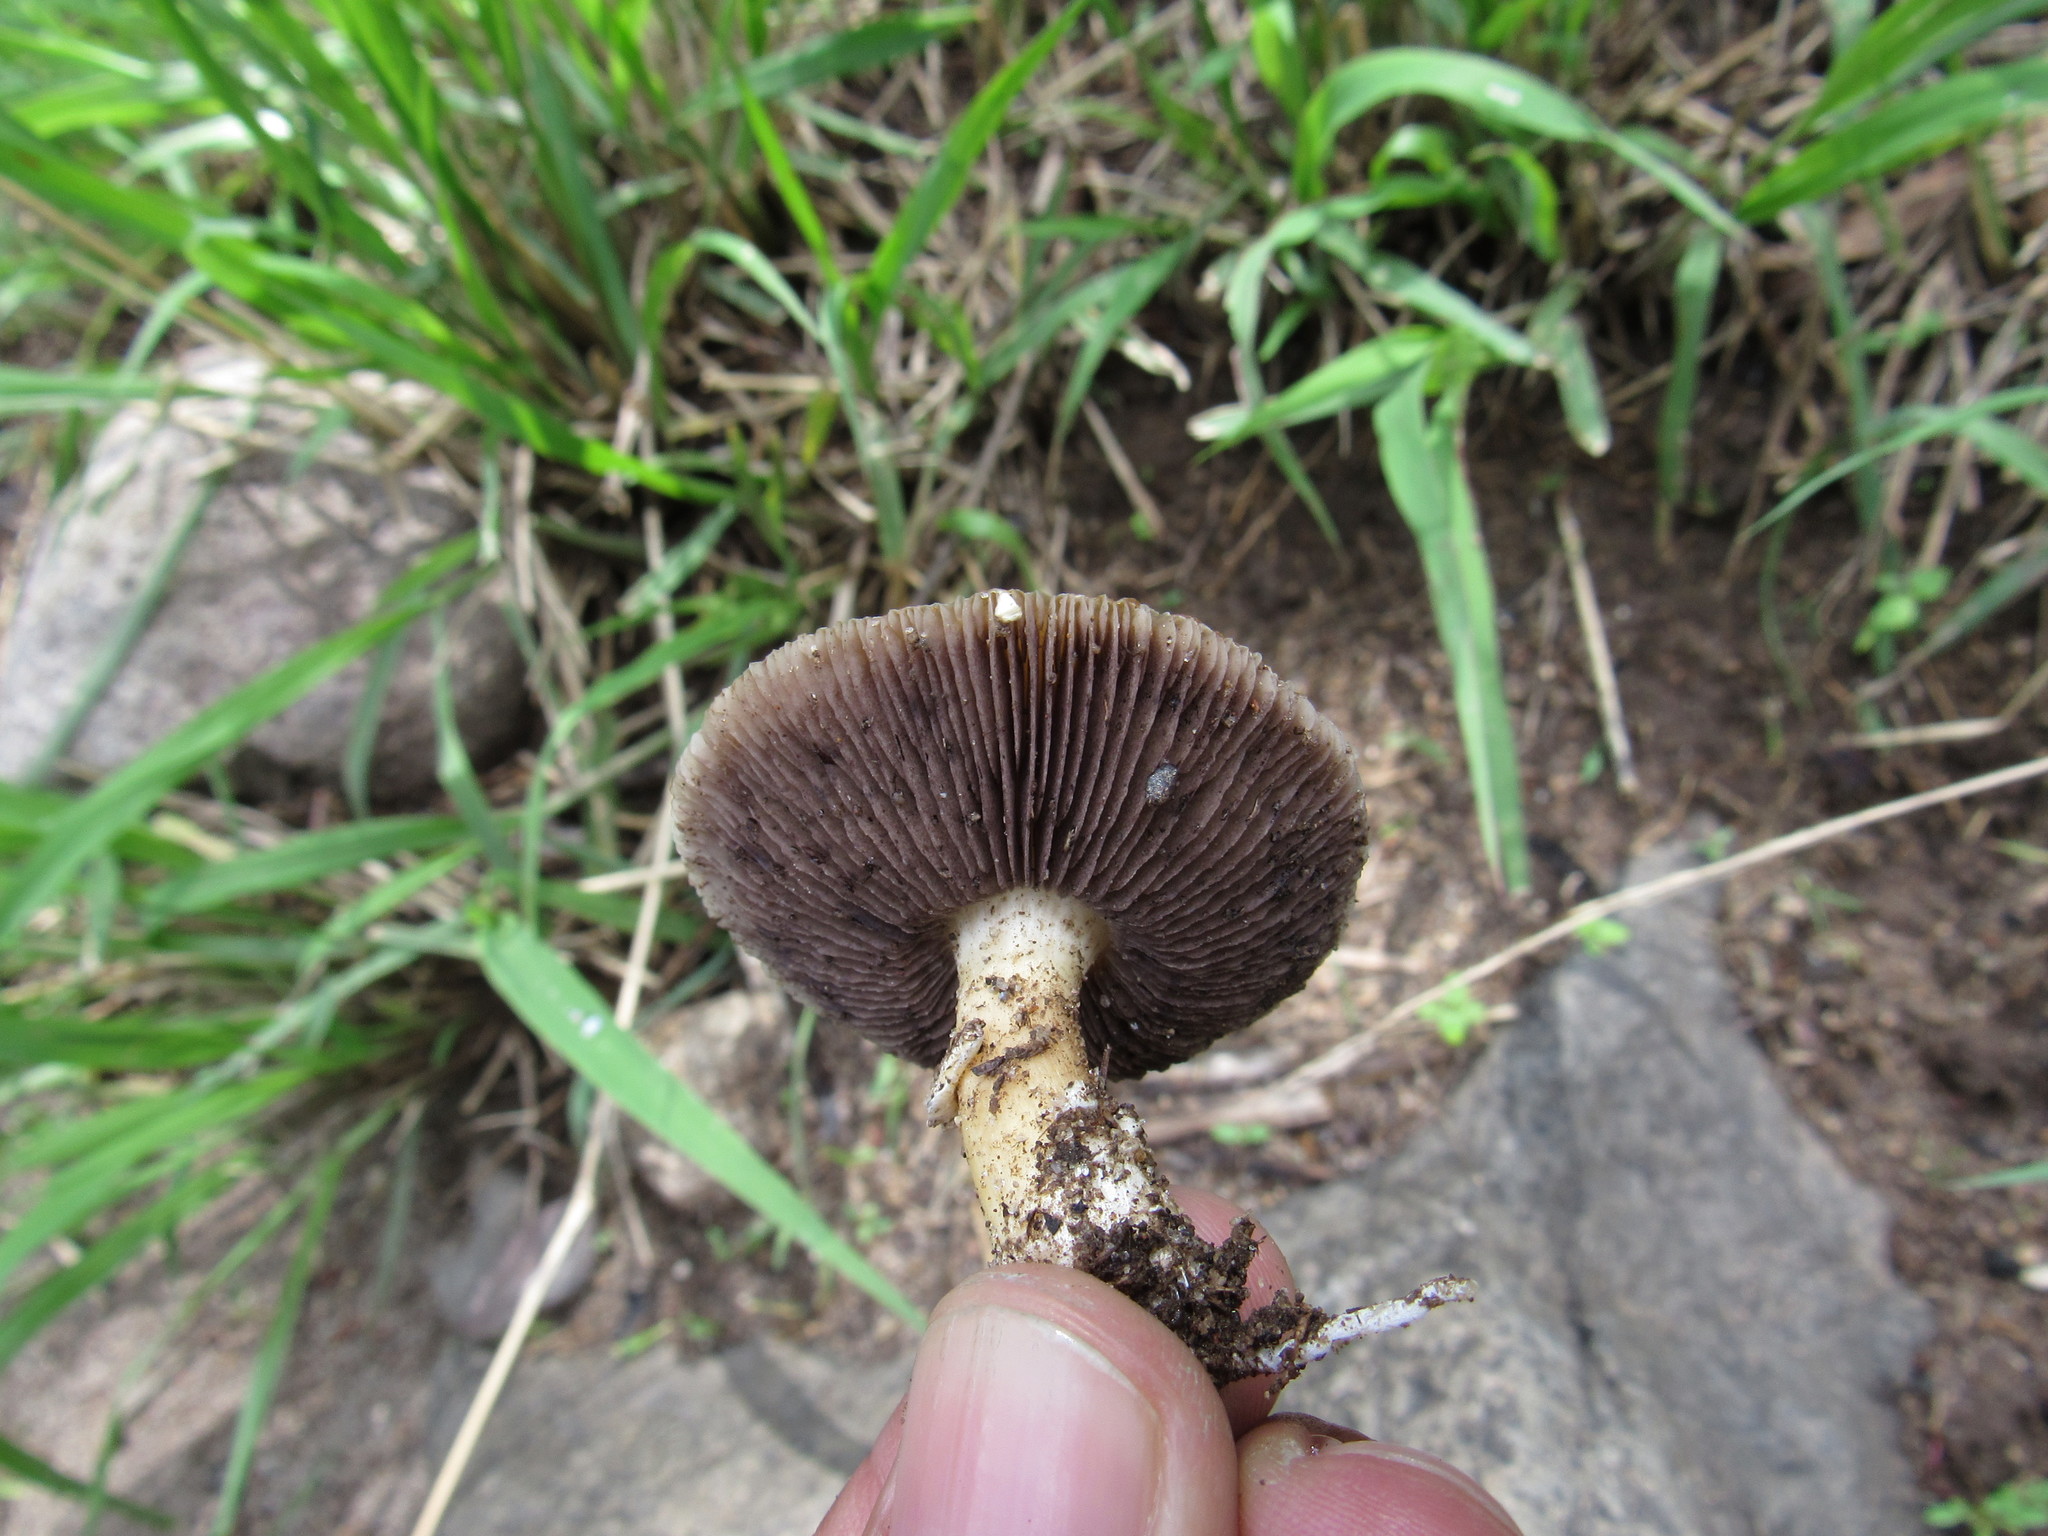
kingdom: Fungi
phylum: Basidiomycota
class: Agaricomycetes
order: Agaricales
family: Hymenogastraceae
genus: Psilocybe
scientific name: Psilocybe coronilla
